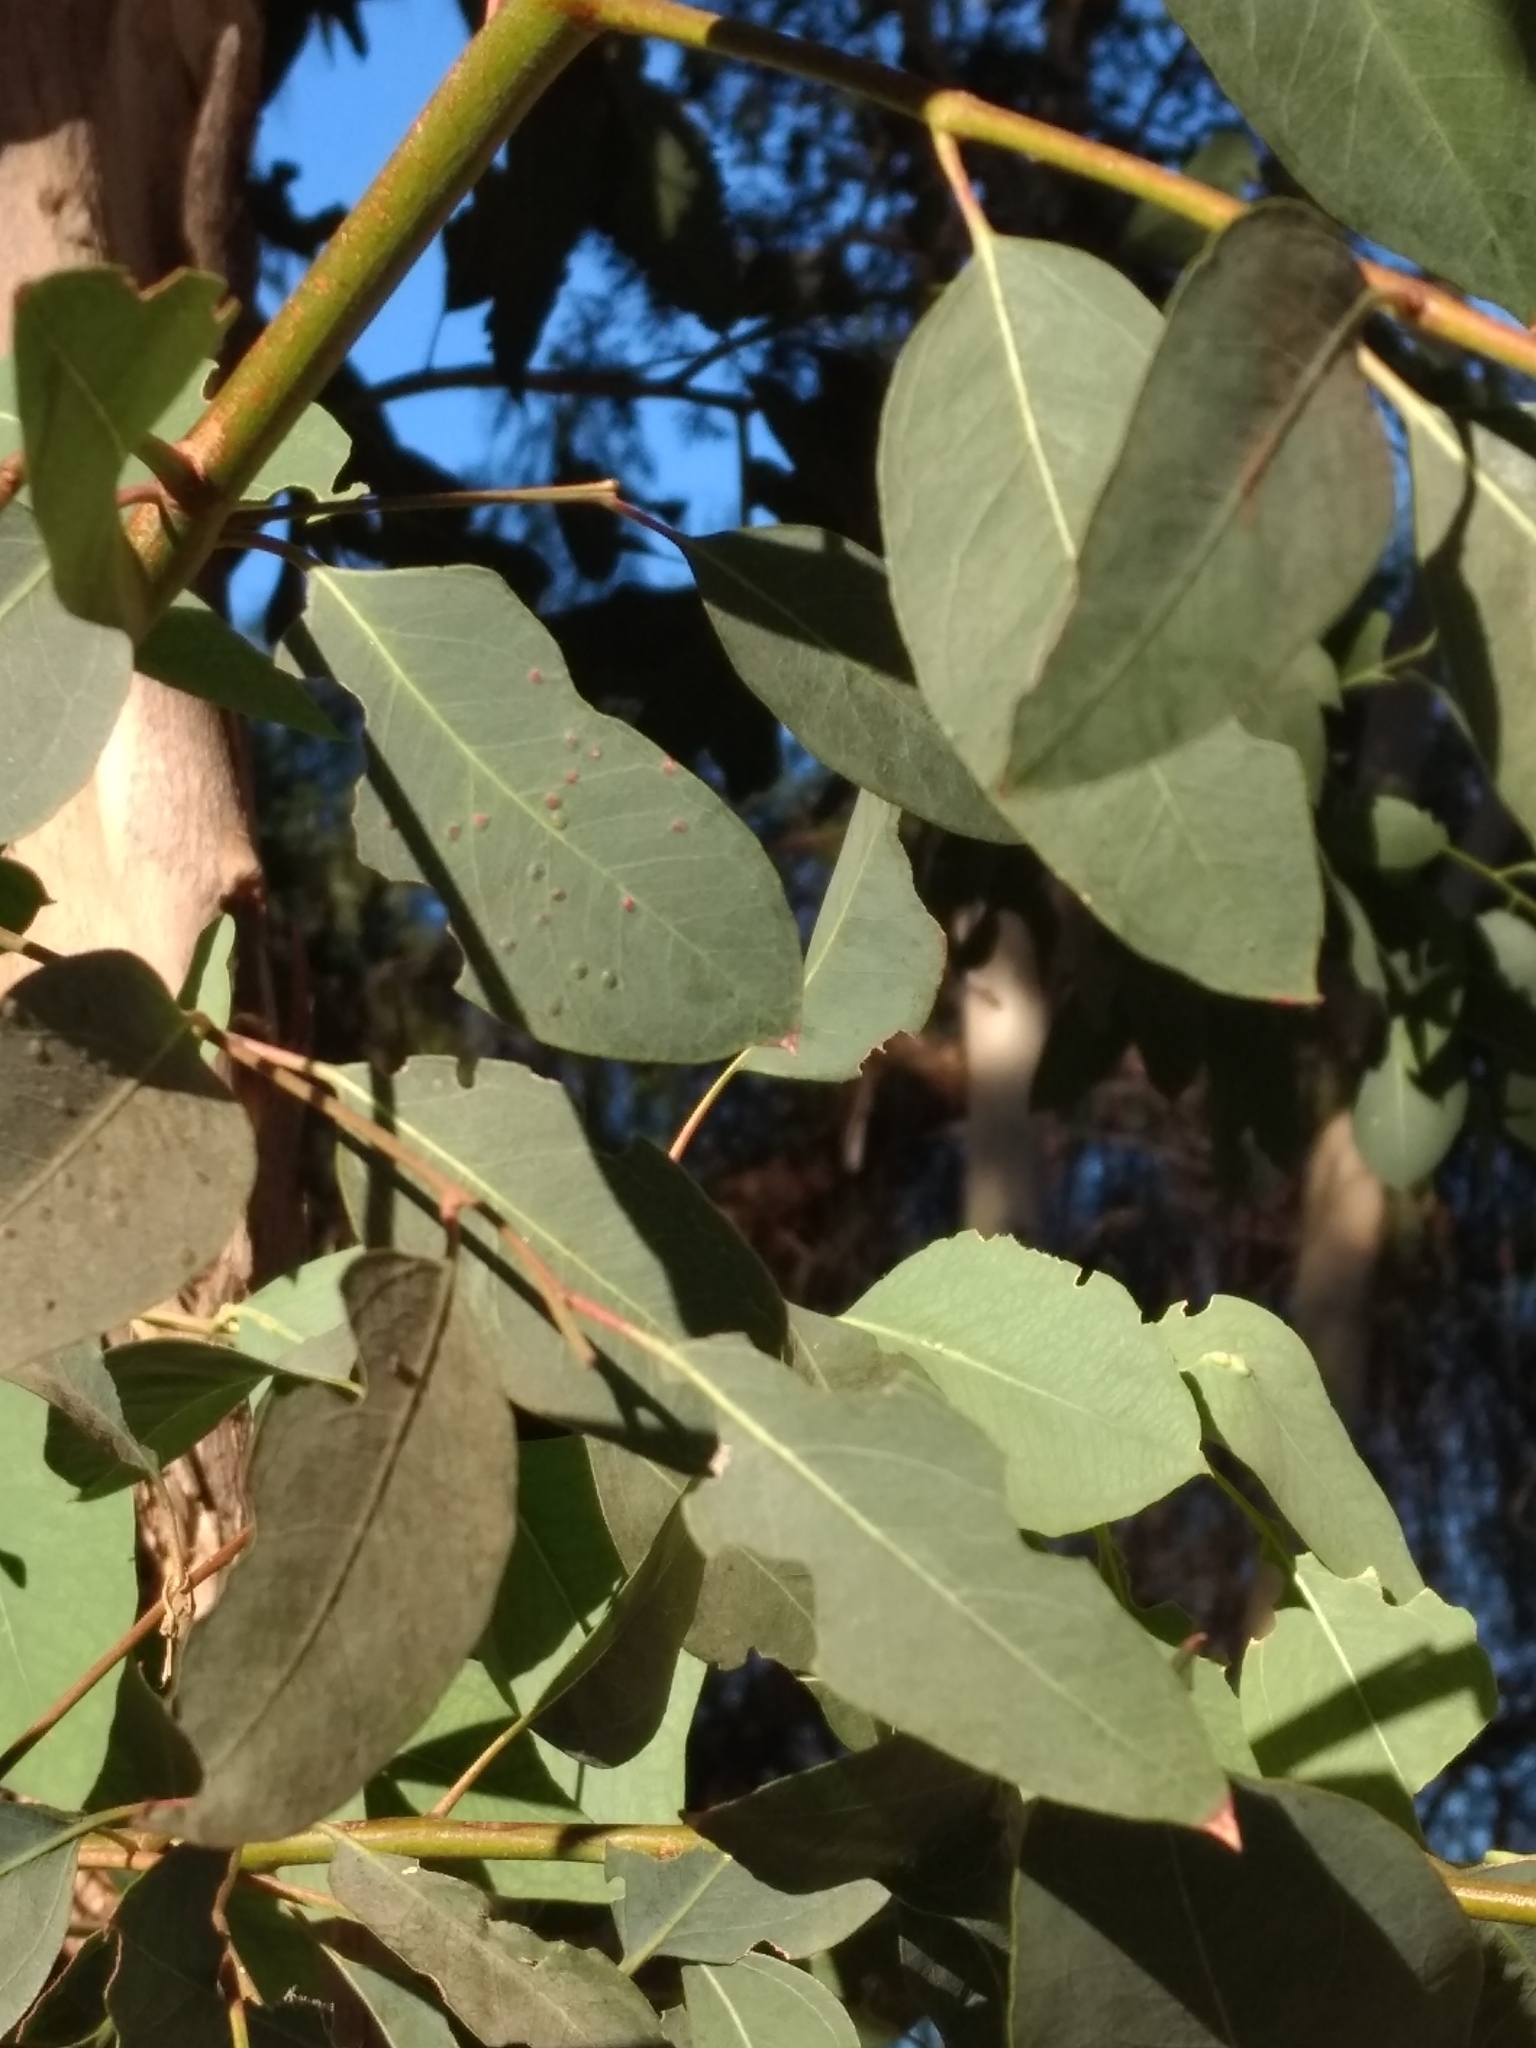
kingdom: Animalia
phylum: Arthropoda
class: Insecta
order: Hymenoptera
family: Eulophidae
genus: Ophelimus
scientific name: Ophelimus maskelli
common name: Gall wasp
